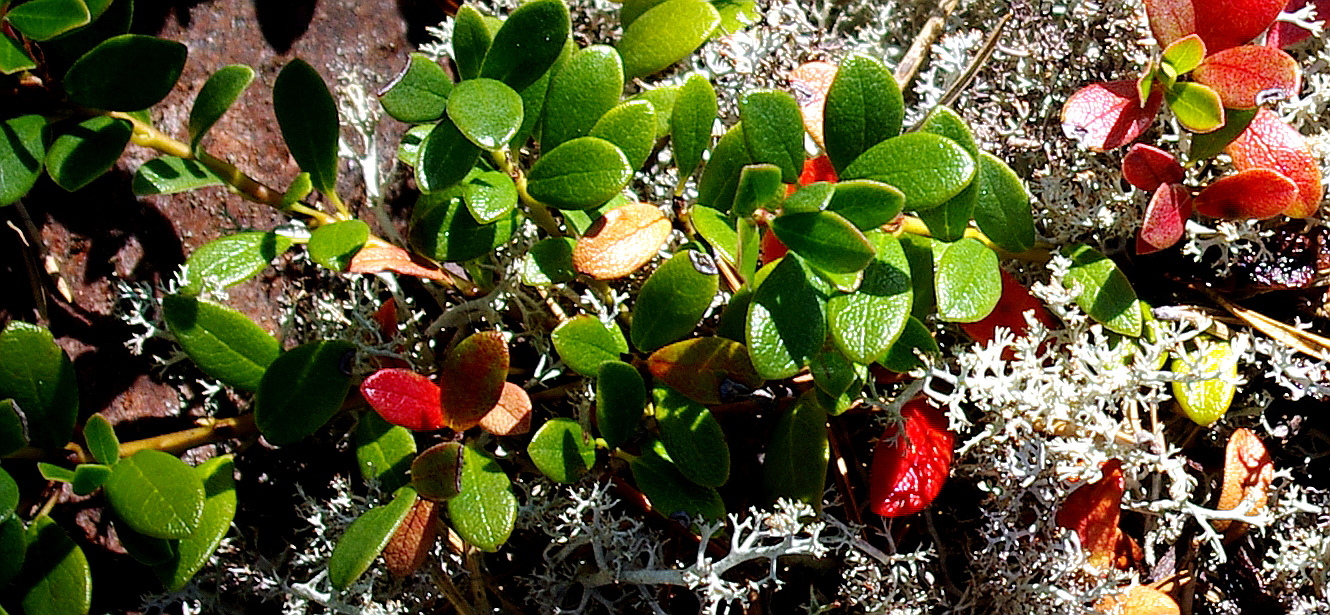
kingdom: Plantae
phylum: Tracheophyta
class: Magnoliopsida
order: Ericales
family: Ericaceae
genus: Arctostaphylos
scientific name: Arctostaphylos uva-ursi
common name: Bearberry
